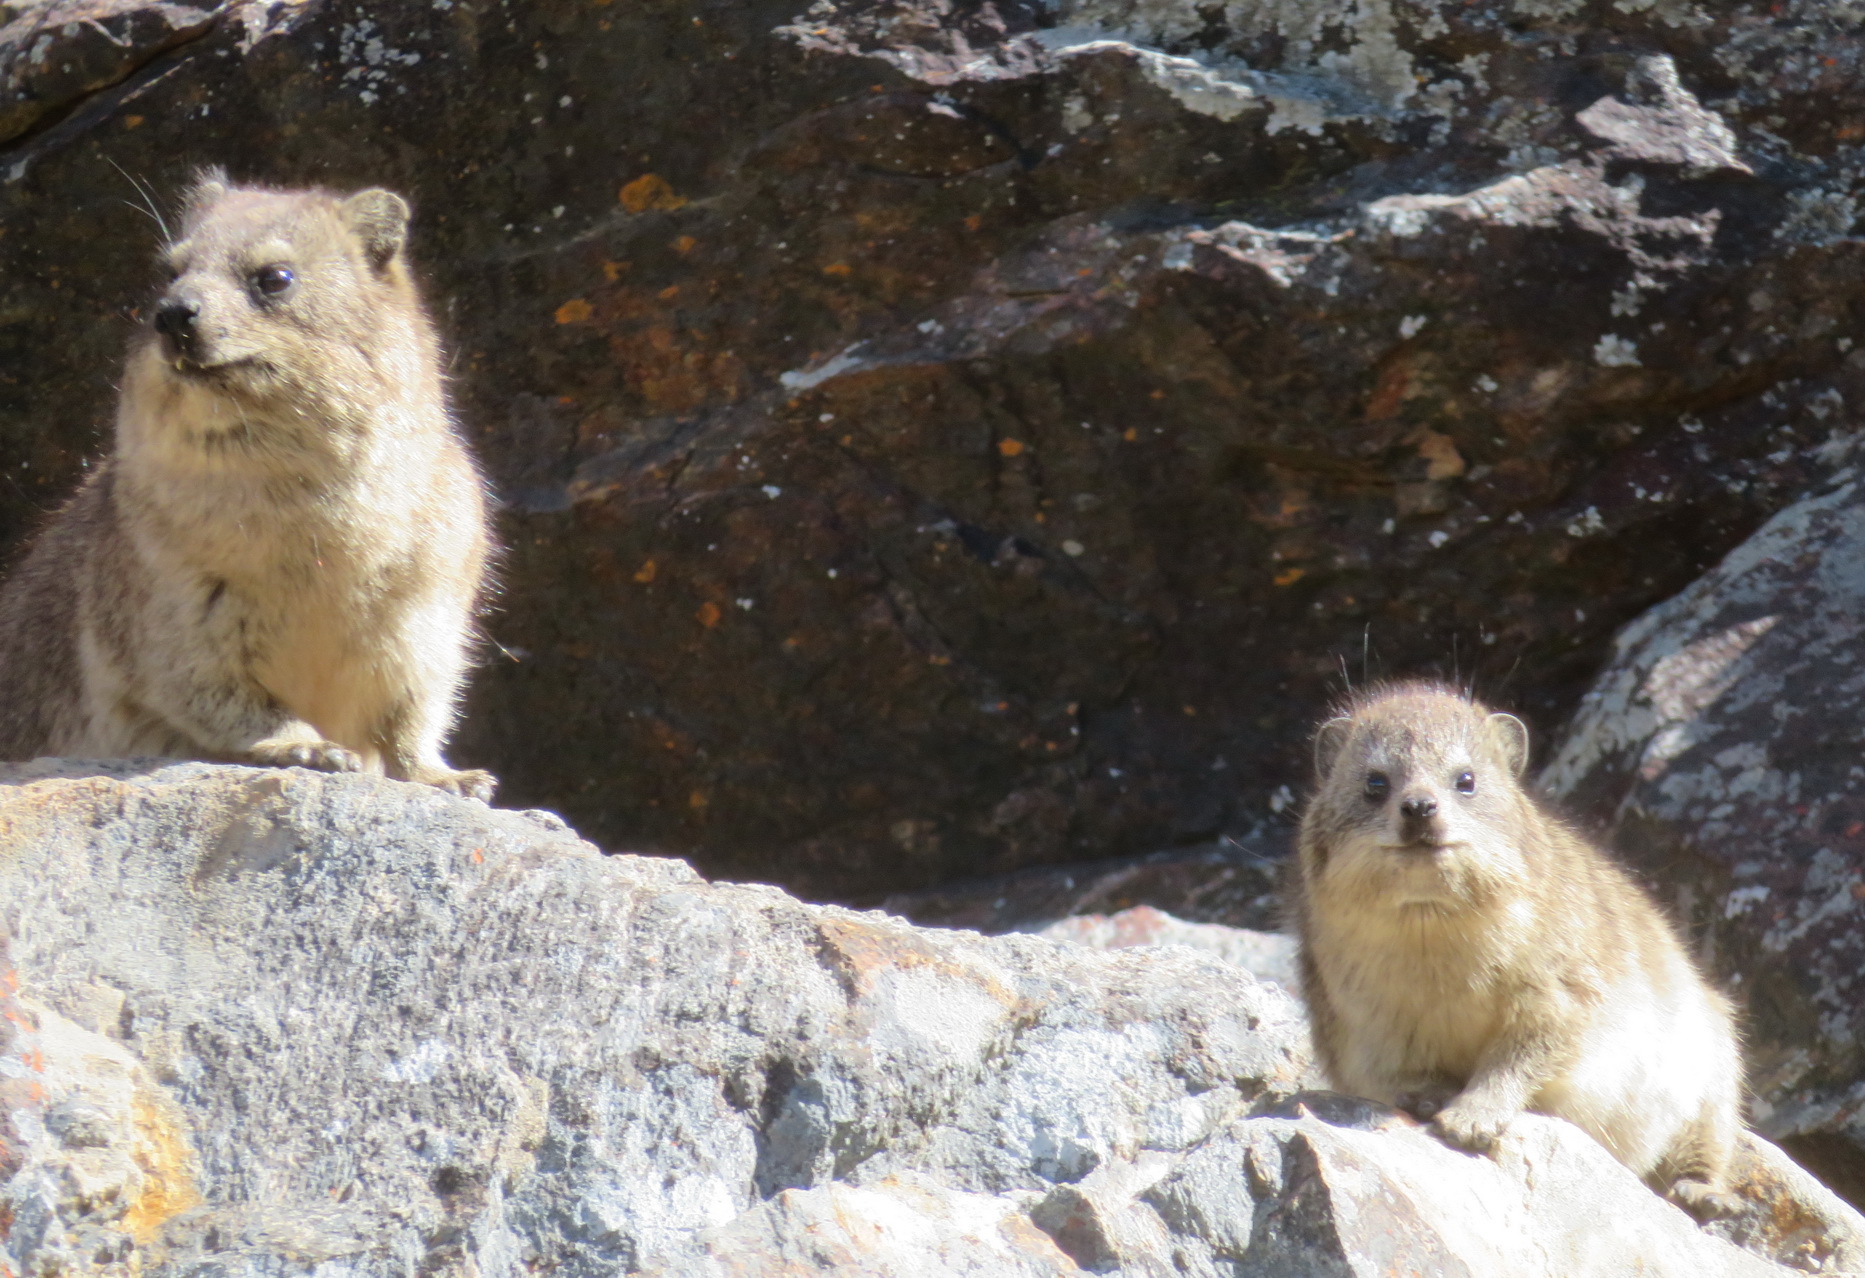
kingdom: Animalia
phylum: Chordata
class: Mammalia
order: Hyracoidea
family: Procaviidae
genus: Procavia
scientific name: Procavia capensis
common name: Rock hyrax
